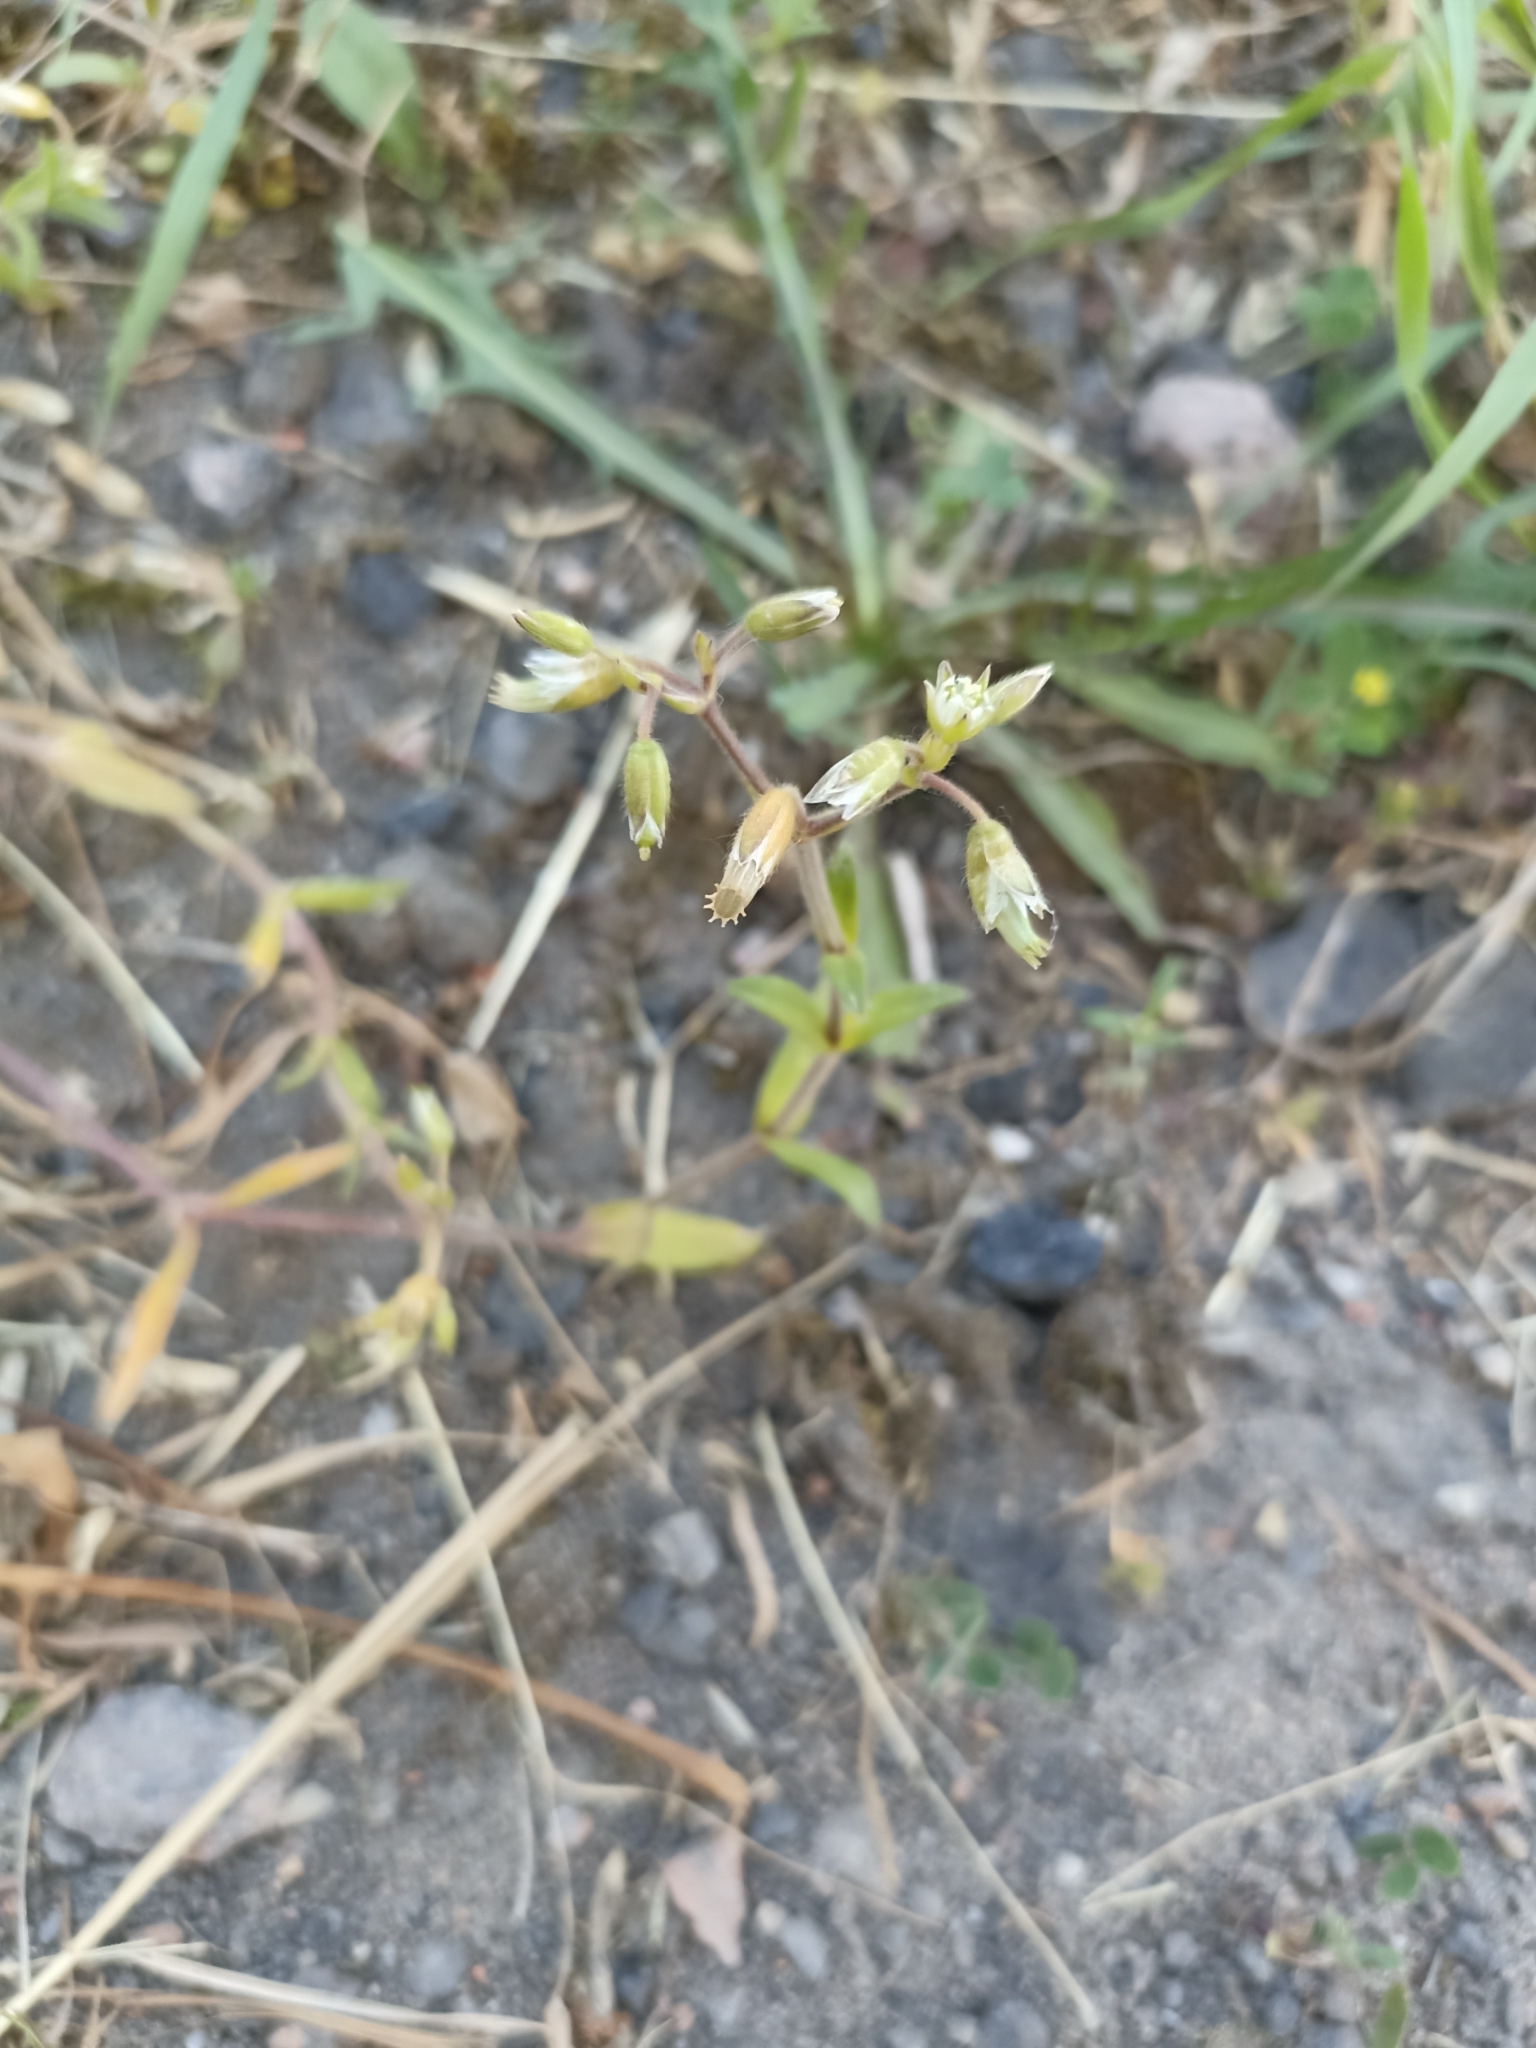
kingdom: Plantae
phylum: Tracheophyta
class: Magnoliopsida
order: Caryophyllales
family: Caryophyllaceae
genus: Cerastium
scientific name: Cerastium holosteoides
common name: Big chickweed
